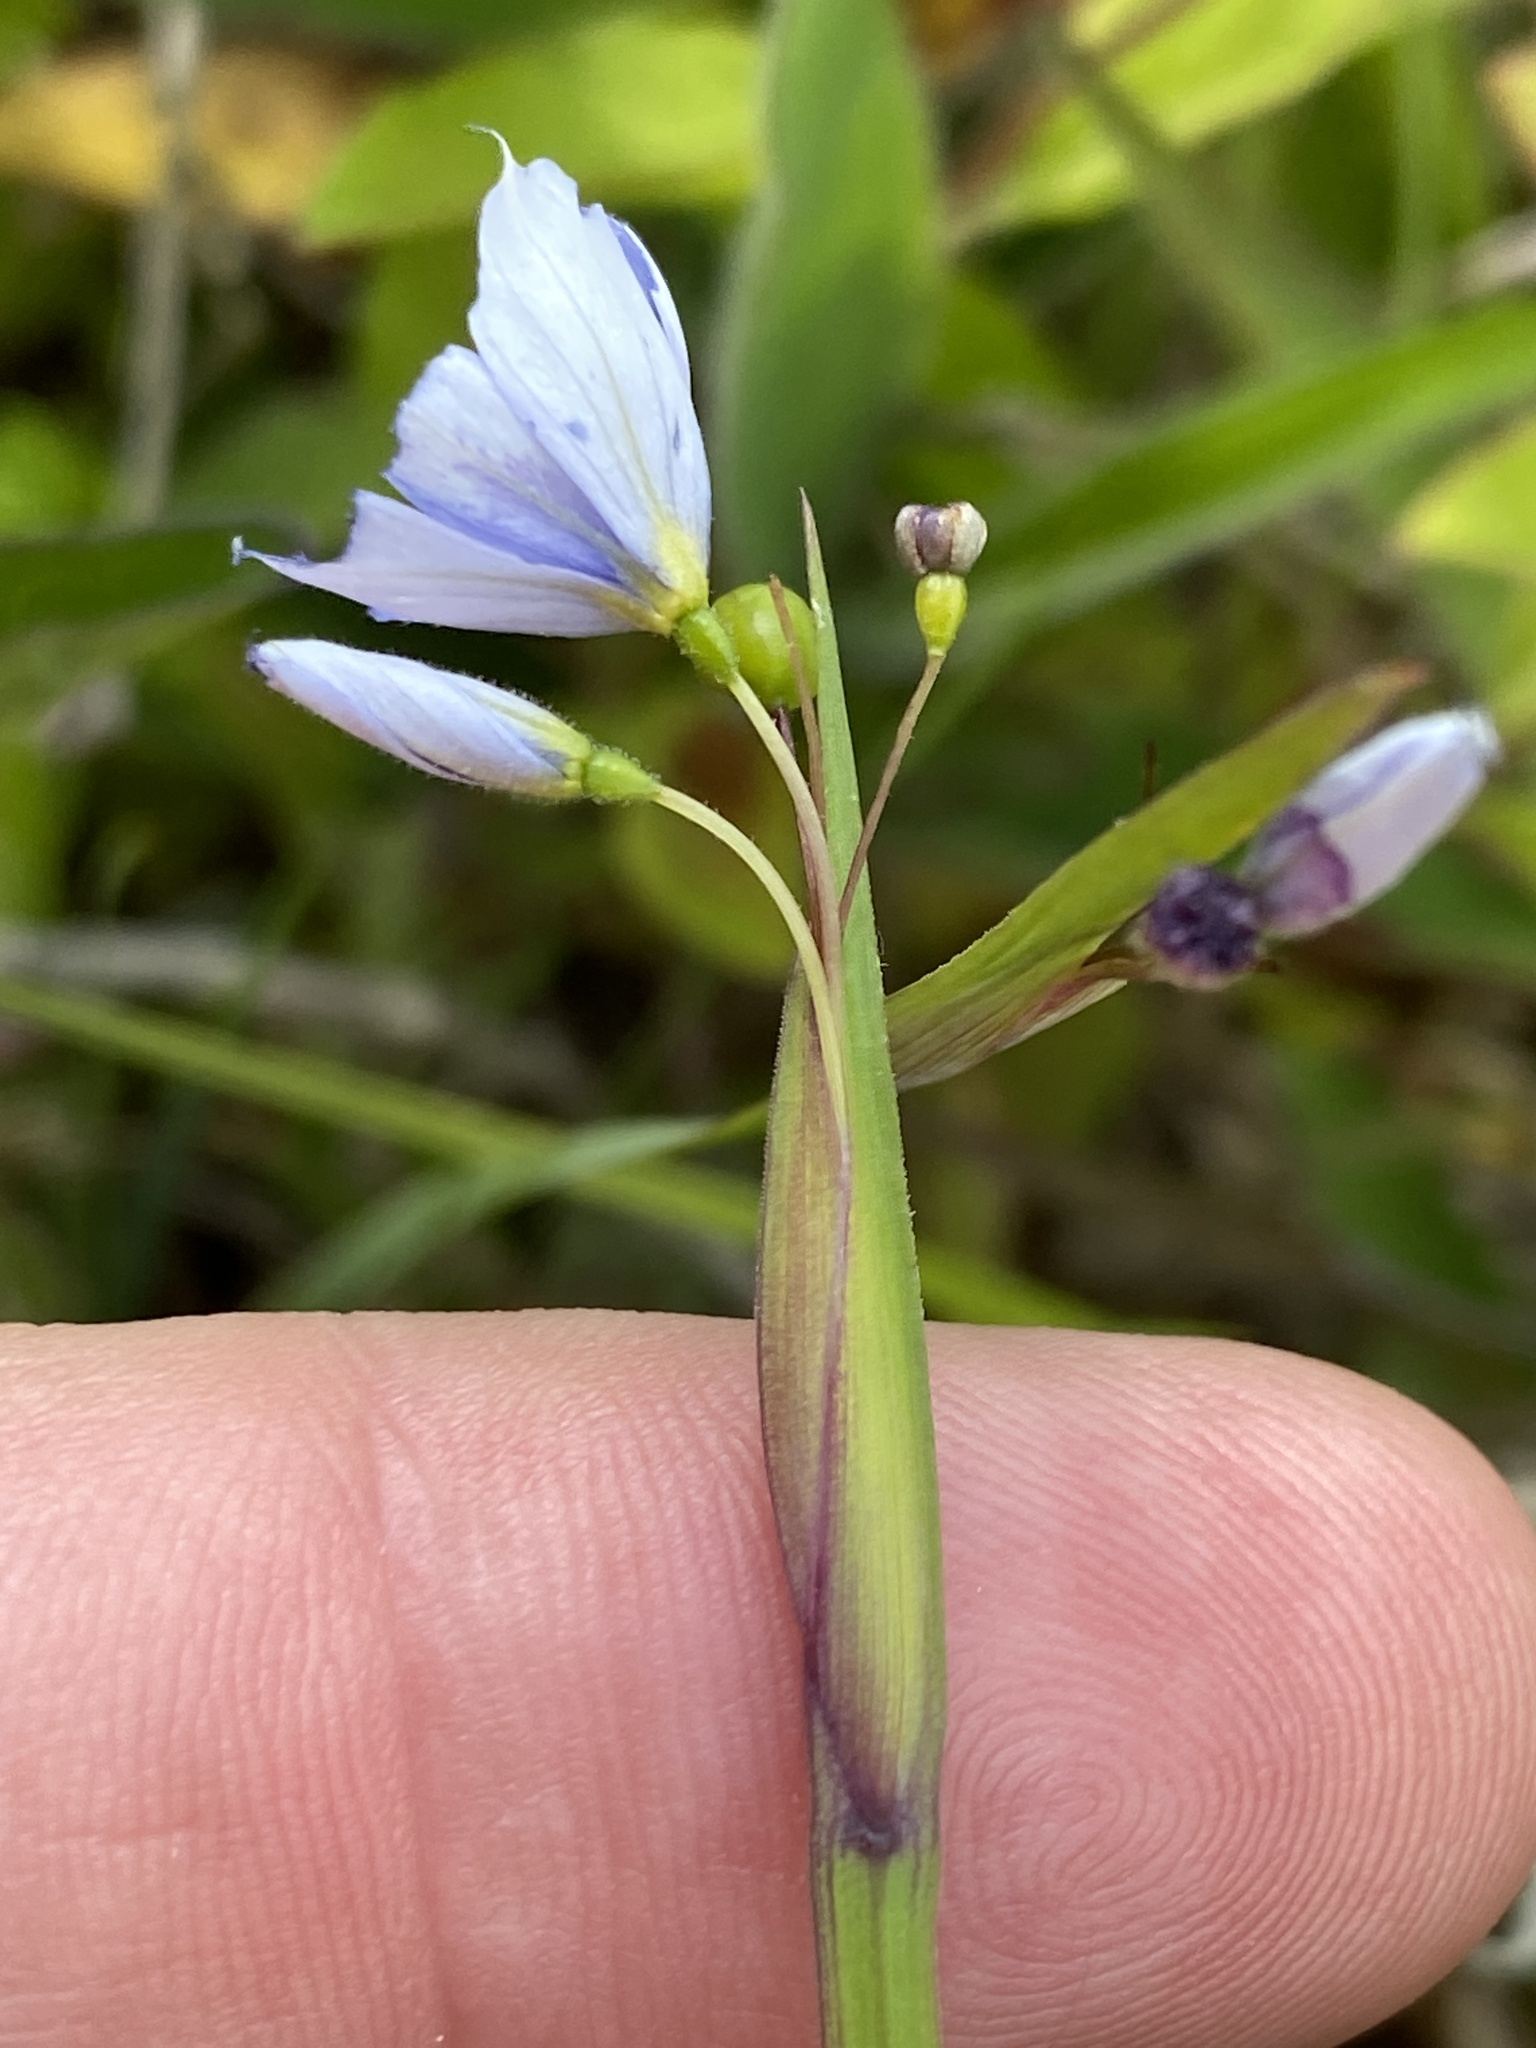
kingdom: Plantae
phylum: Tracheophyta
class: Liliopsida
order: Asparagales
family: Iridaceae
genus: Sisyrinchium
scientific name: Sisyrinchium angustifolium
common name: Narrow-leaf blue-eyed-grass
